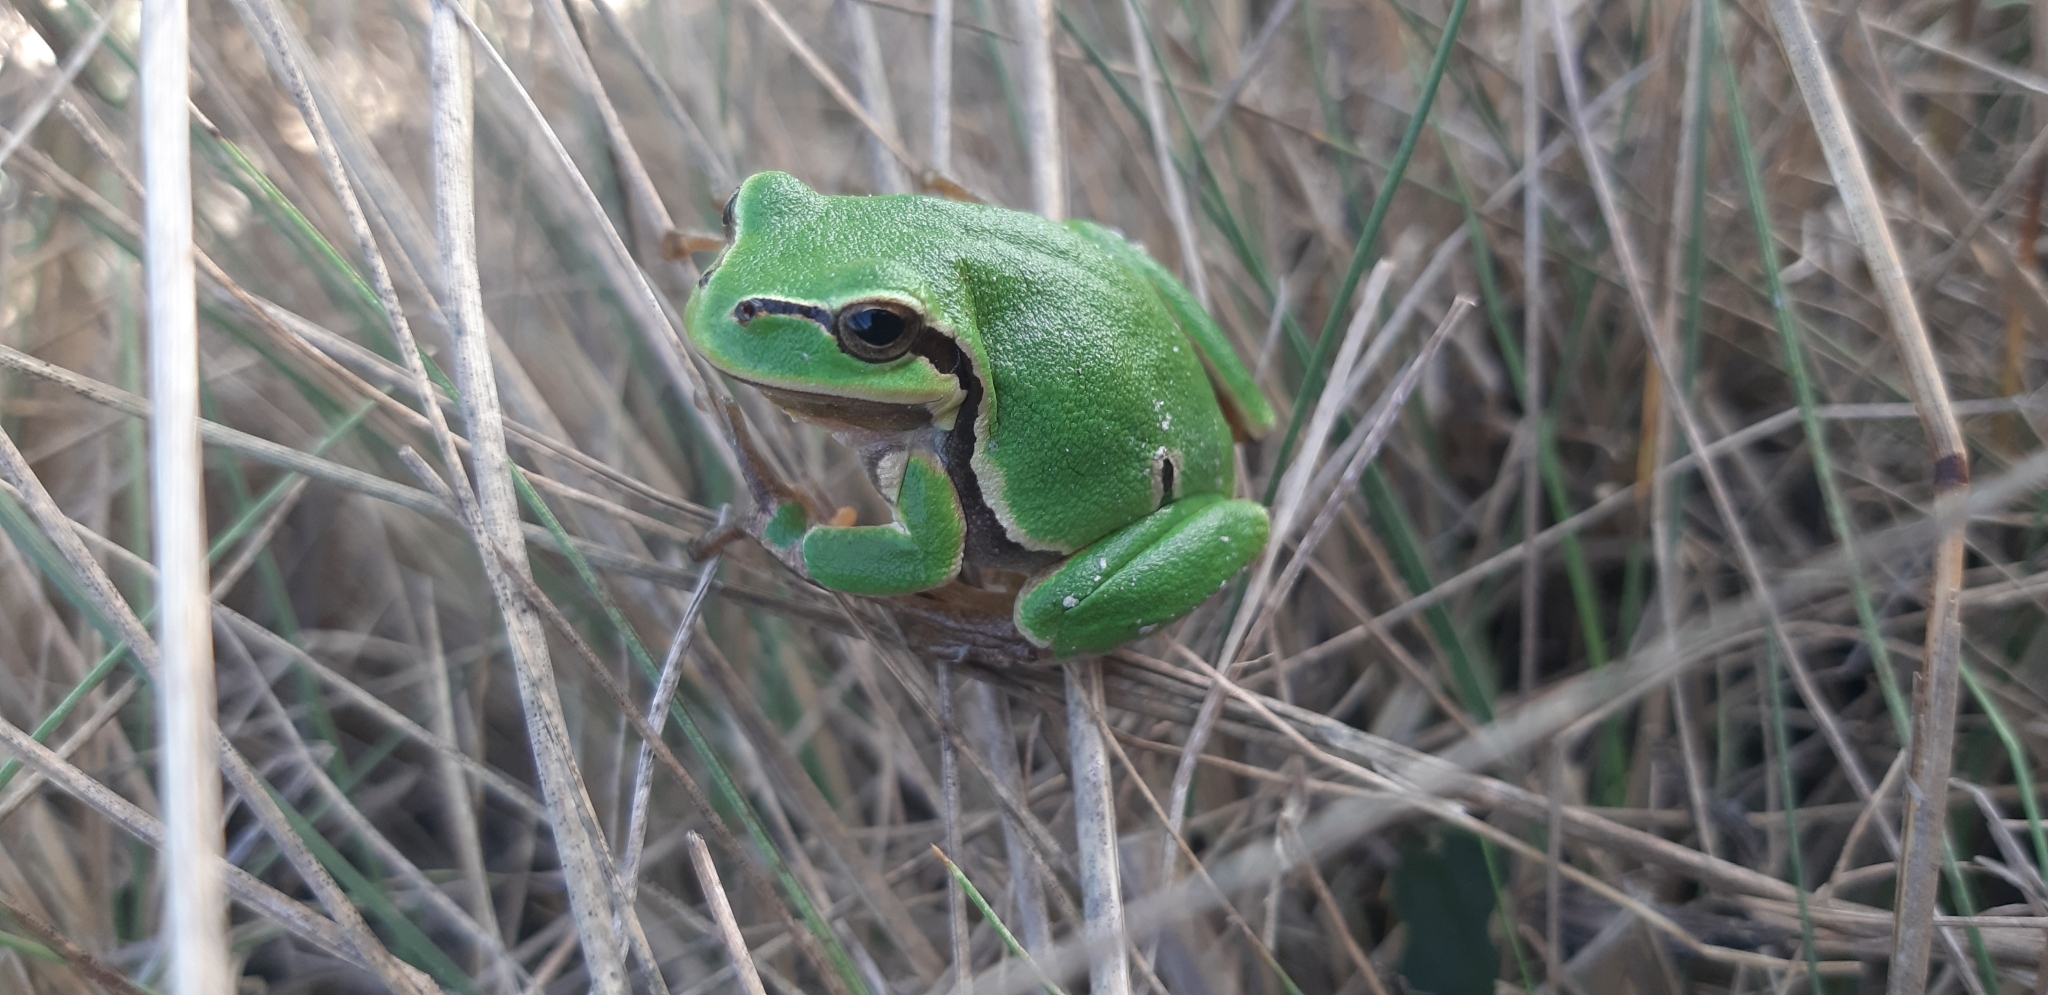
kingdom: Animalia
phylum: Chordata
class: Amphibia
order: Anura
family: Hylidae
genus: Hyla
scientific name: Hyla arborea
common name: Common tree frog
